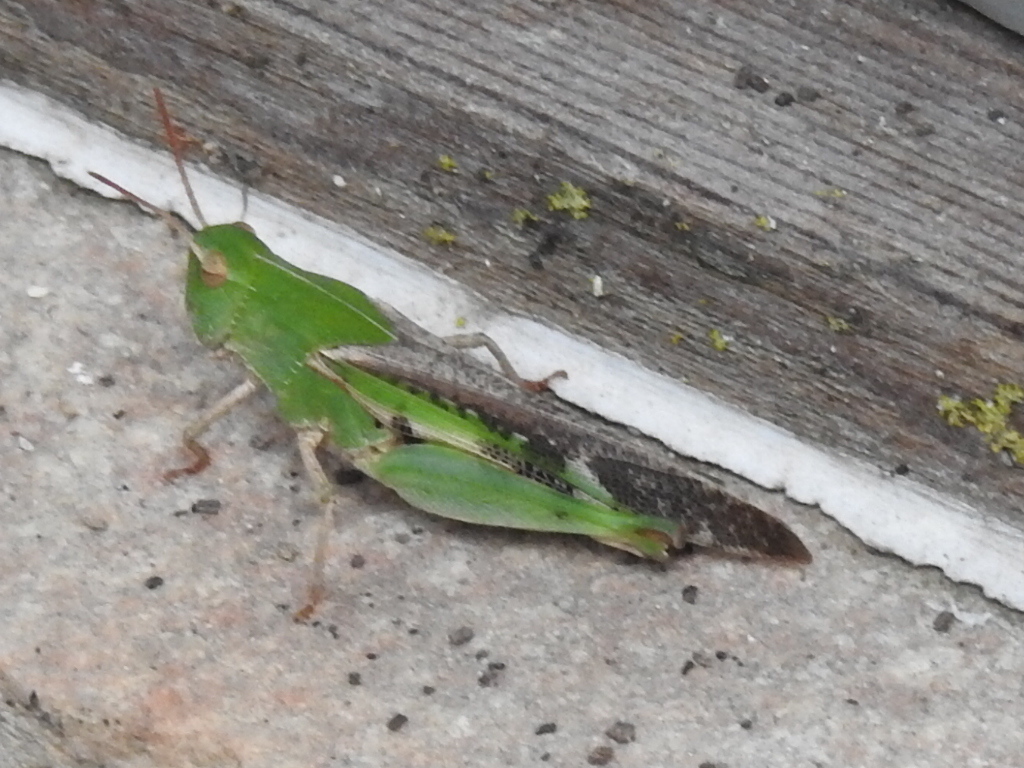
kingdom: Animalia
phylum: Arthropoda
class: Insecta
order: Orthoptera
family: Acrididae
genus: Chortophaga
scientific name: Chortophaga viridifasciata
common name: Green-striped grasshopper
